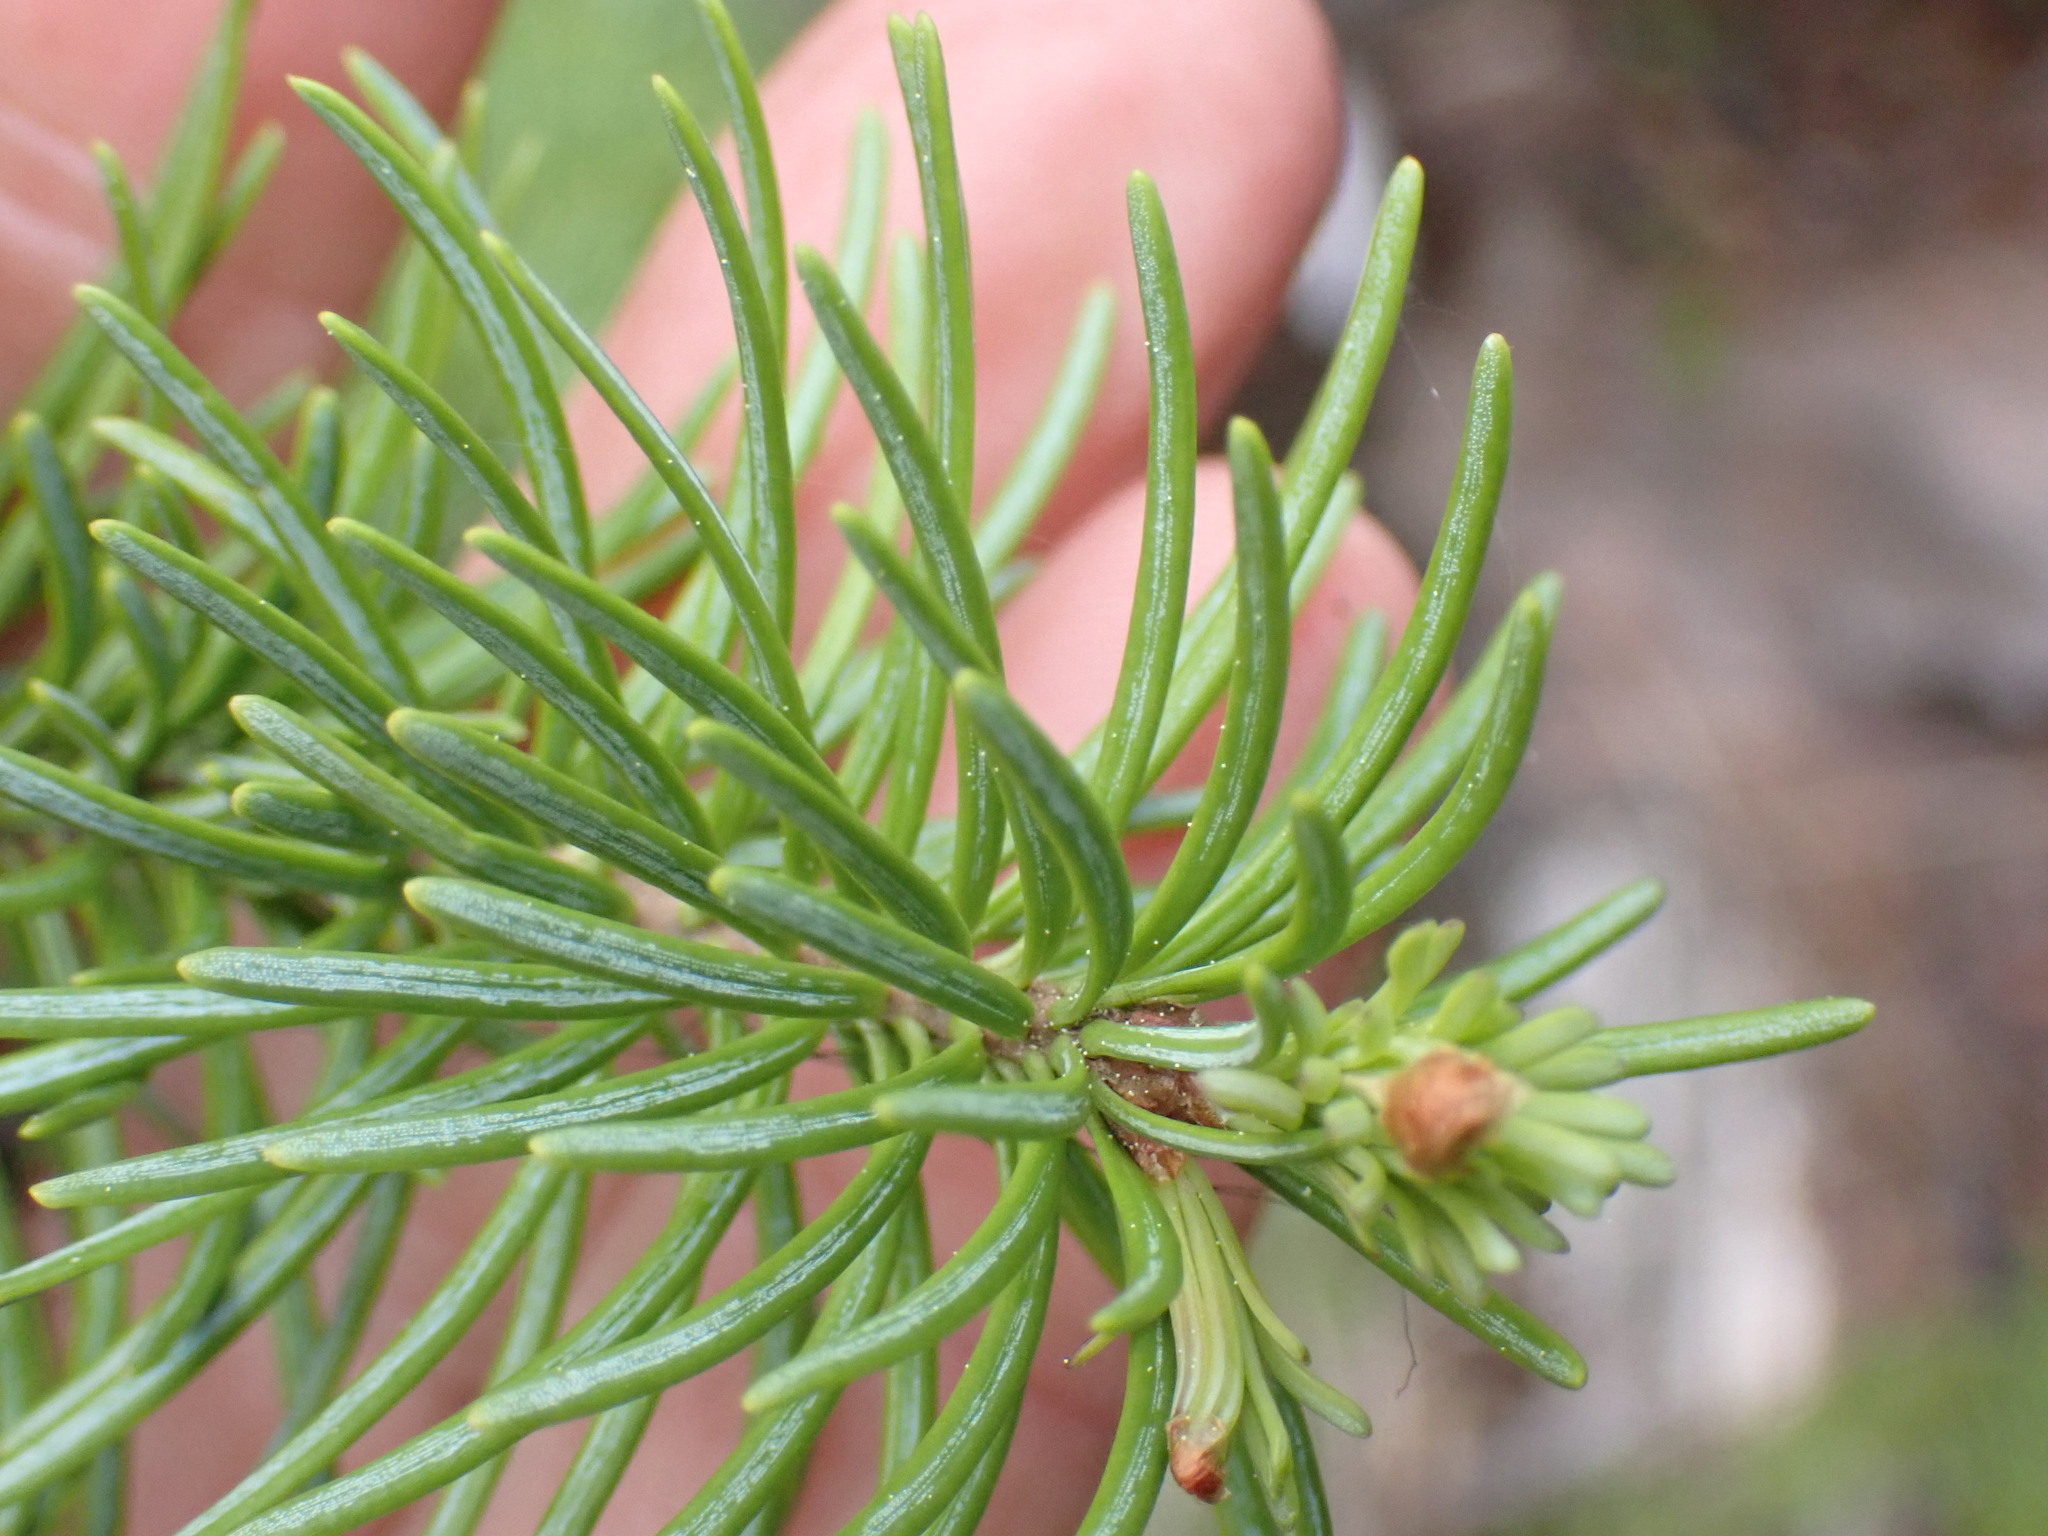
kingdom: Plantae
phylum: Tracheophyta
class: Pinopsida
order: Pinales
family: Pinaceae
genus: Abies
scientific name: Abies lasiocarpa
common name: Subalpine fir
